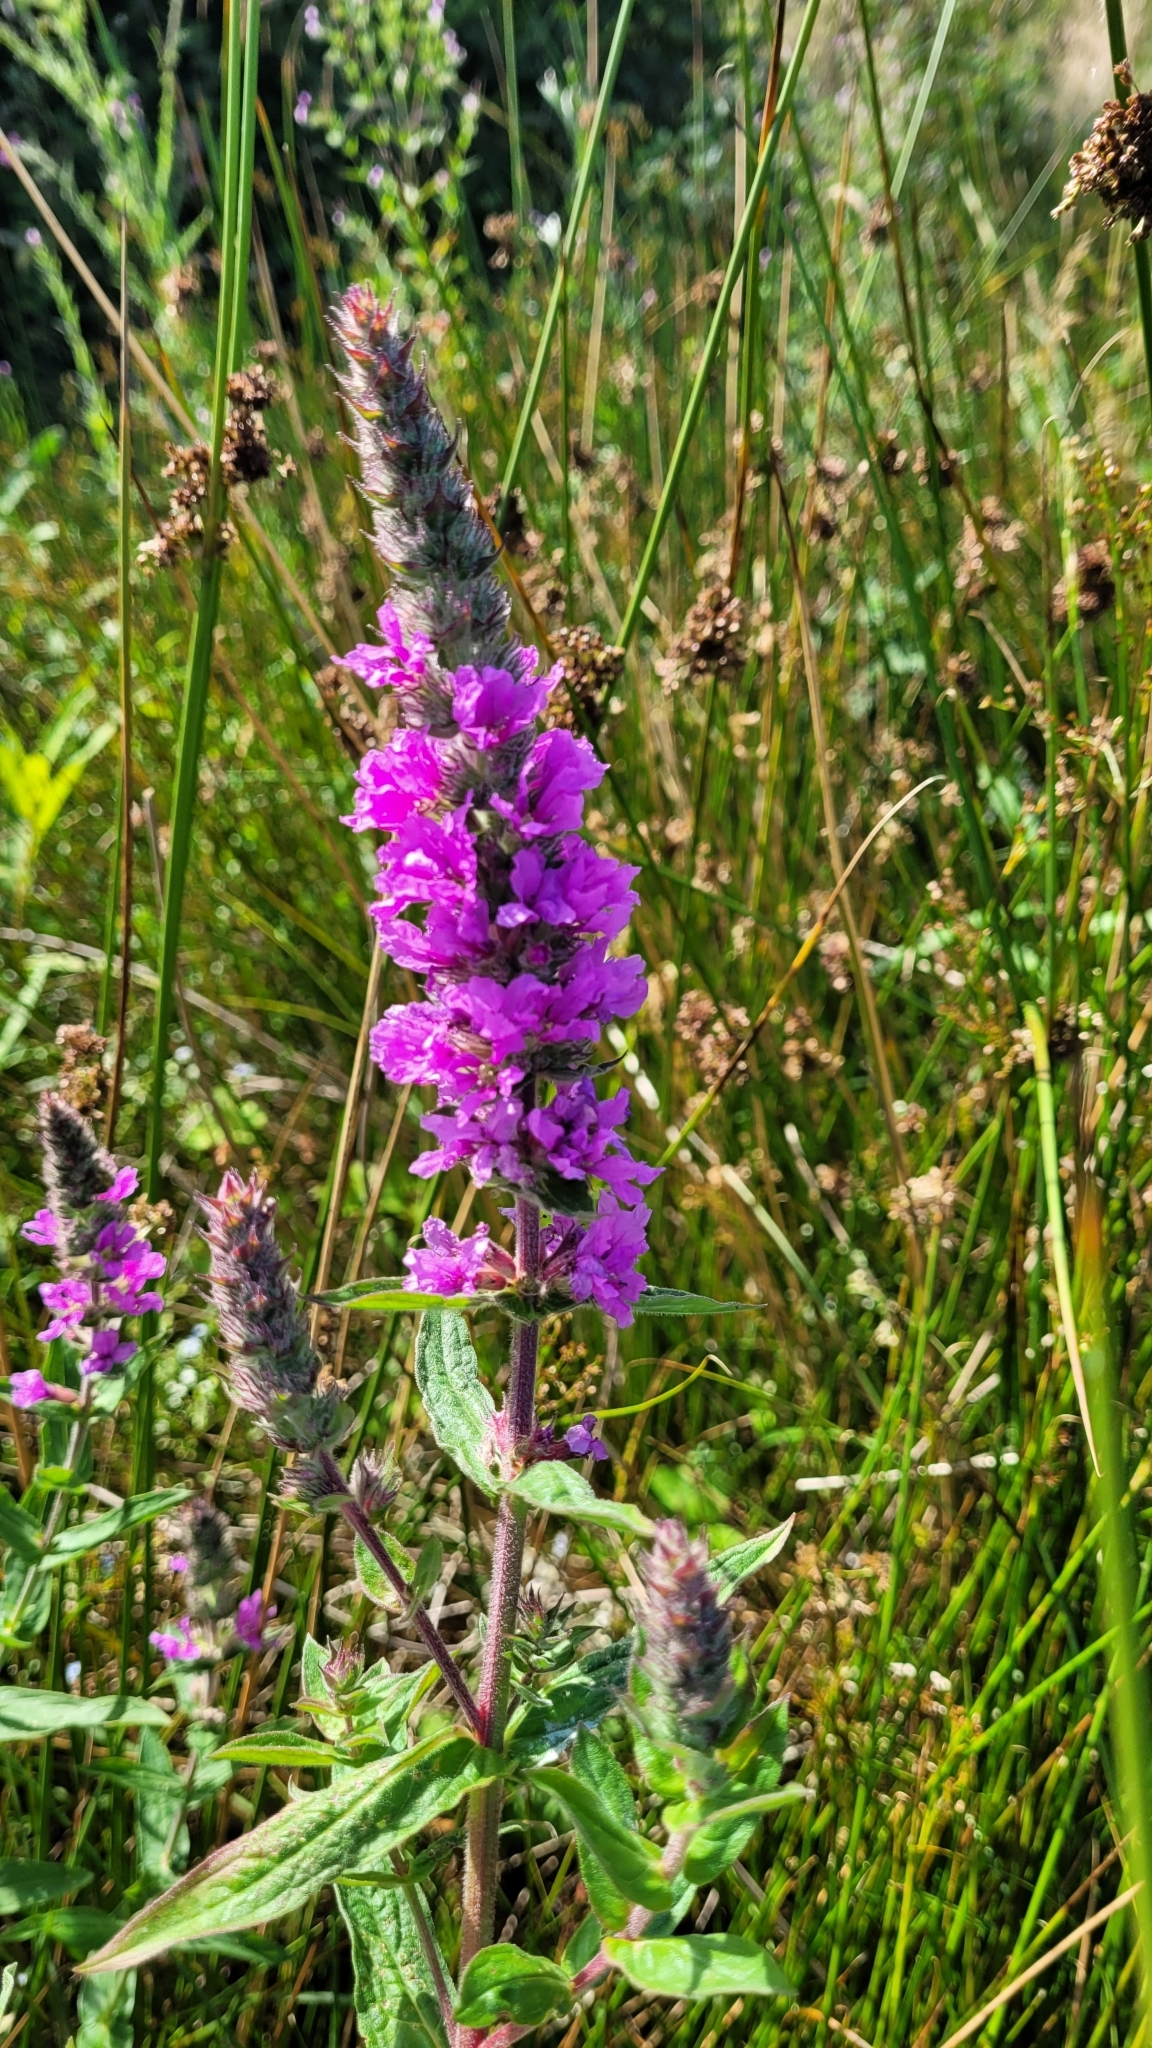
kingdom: Plantae
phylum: Tracheophyta
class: Magnoliopsida
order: Myrtales
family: Lythraceae
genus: Lythrum
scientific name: Lythrum salicaria
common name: Purple loosestrife
